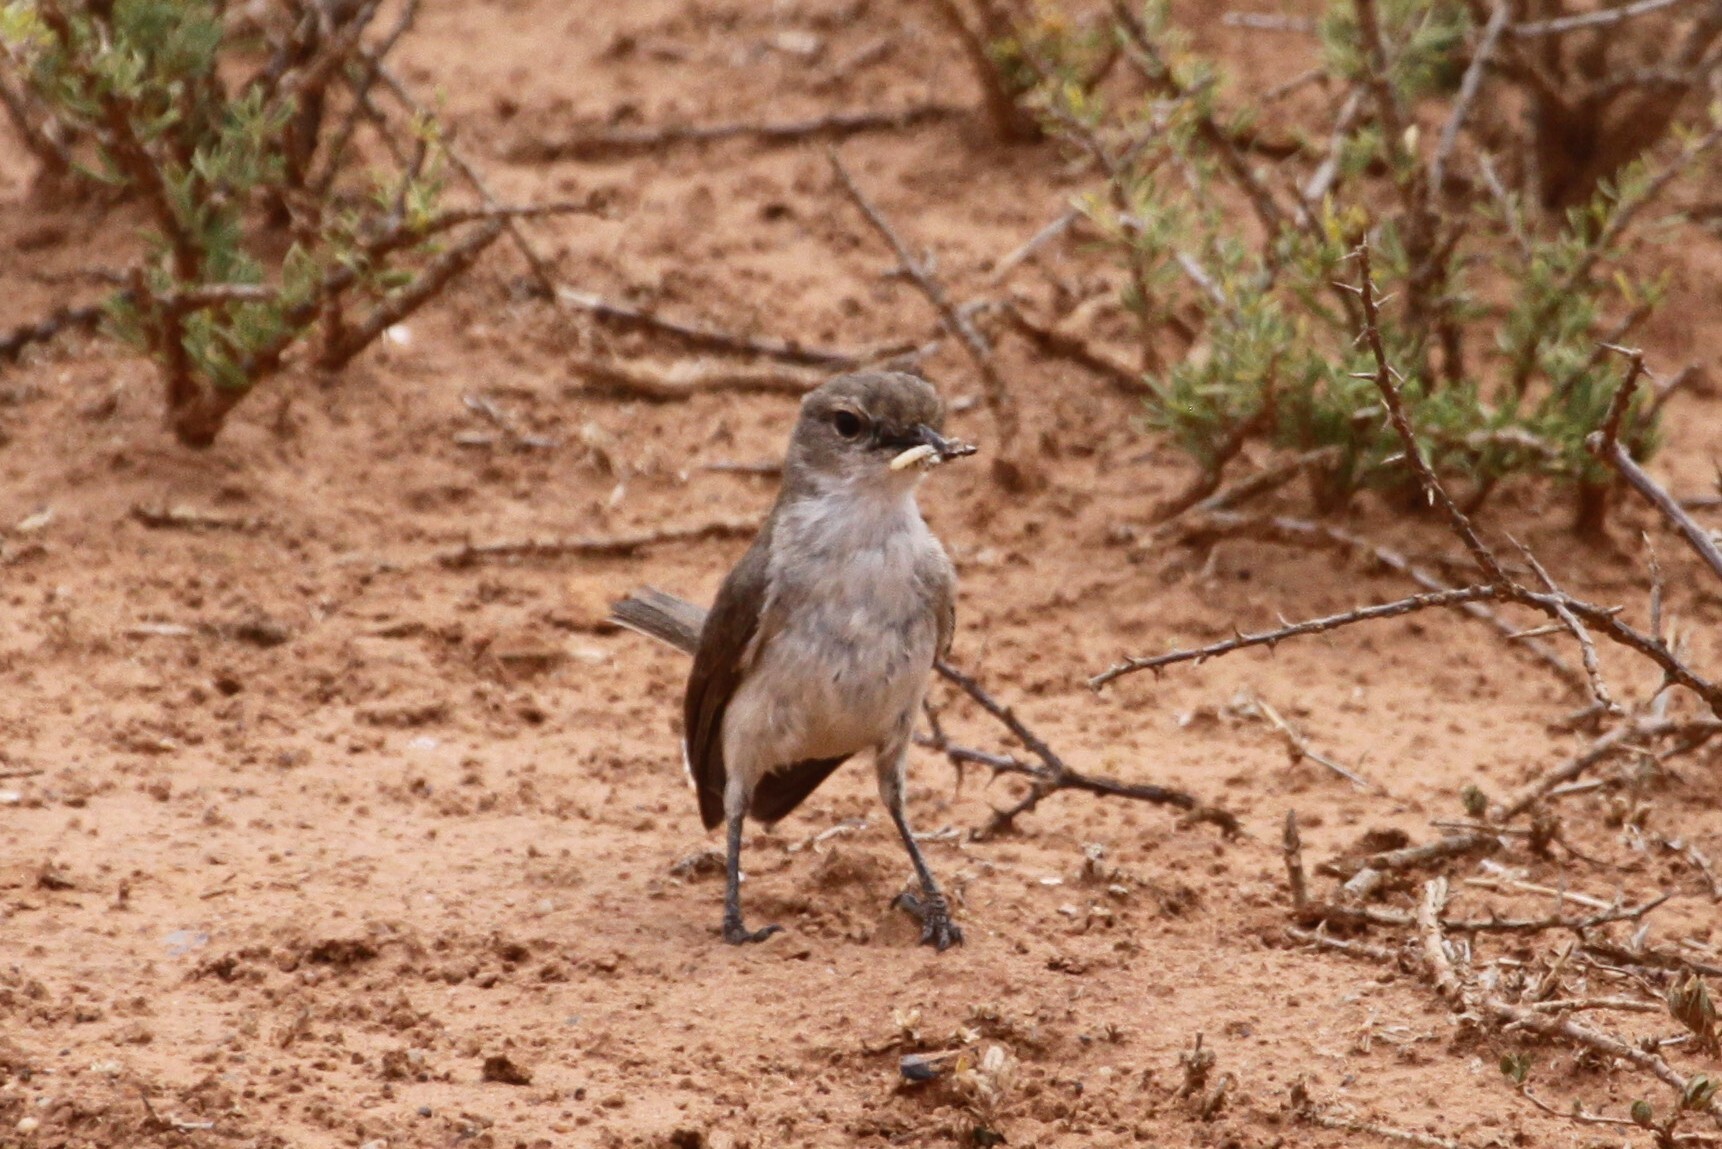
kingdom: Animalia
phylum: Chordata
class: Aves
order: Passeriformes
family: Muscicapidae
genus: Bradornis
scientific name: Bradornis mariquensis
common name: Marico flycatcher
